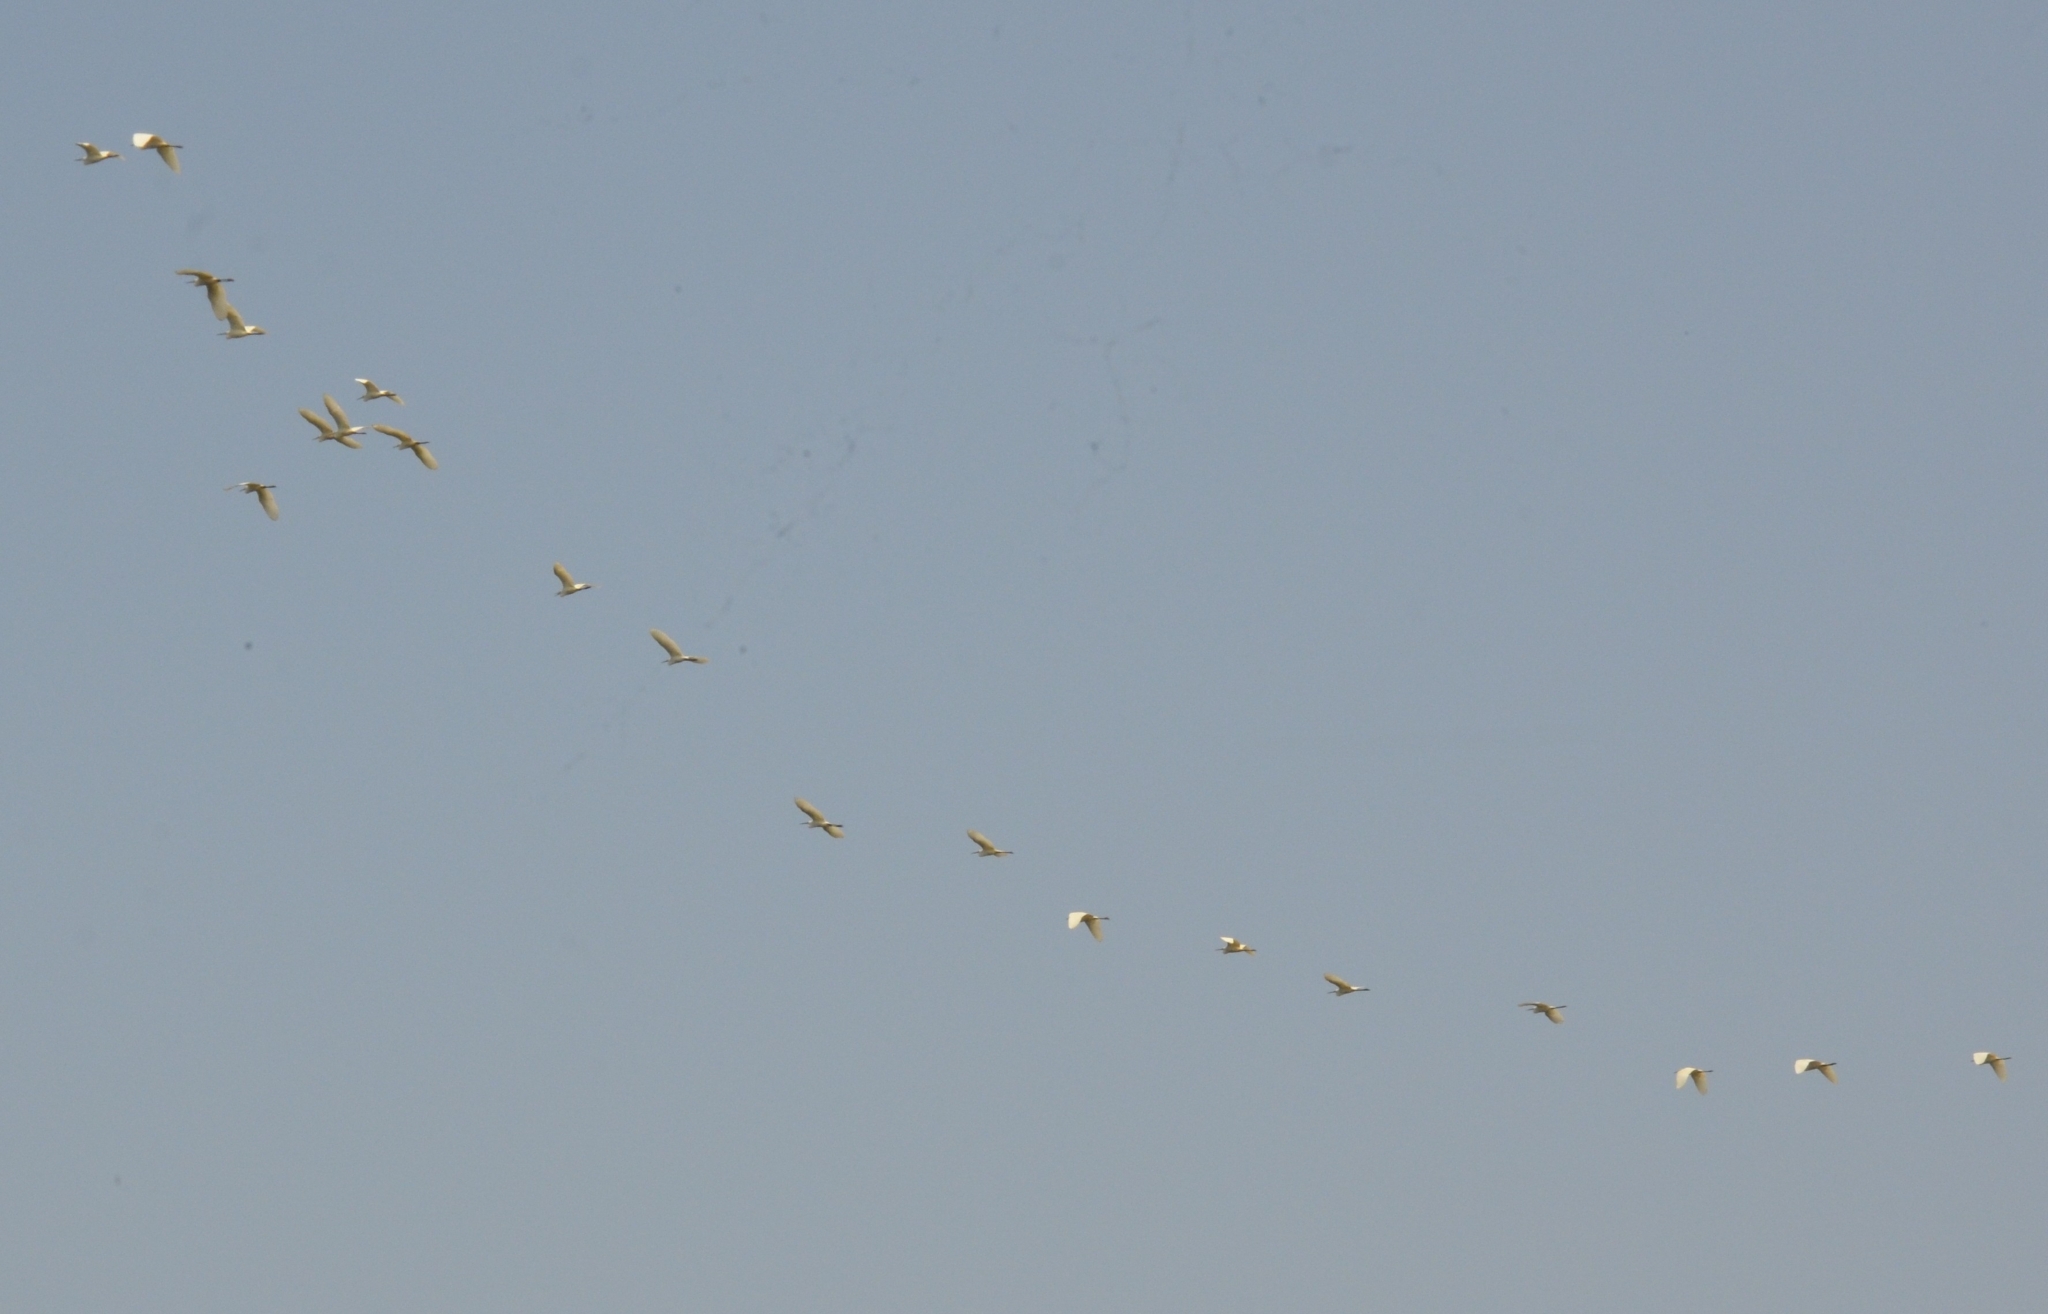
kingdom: Animalia
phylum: Chordata
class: Aves
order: Pelecaniformes
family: Ardeidae
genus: Egretta
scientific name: Egretta garzetta
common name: Little egret
